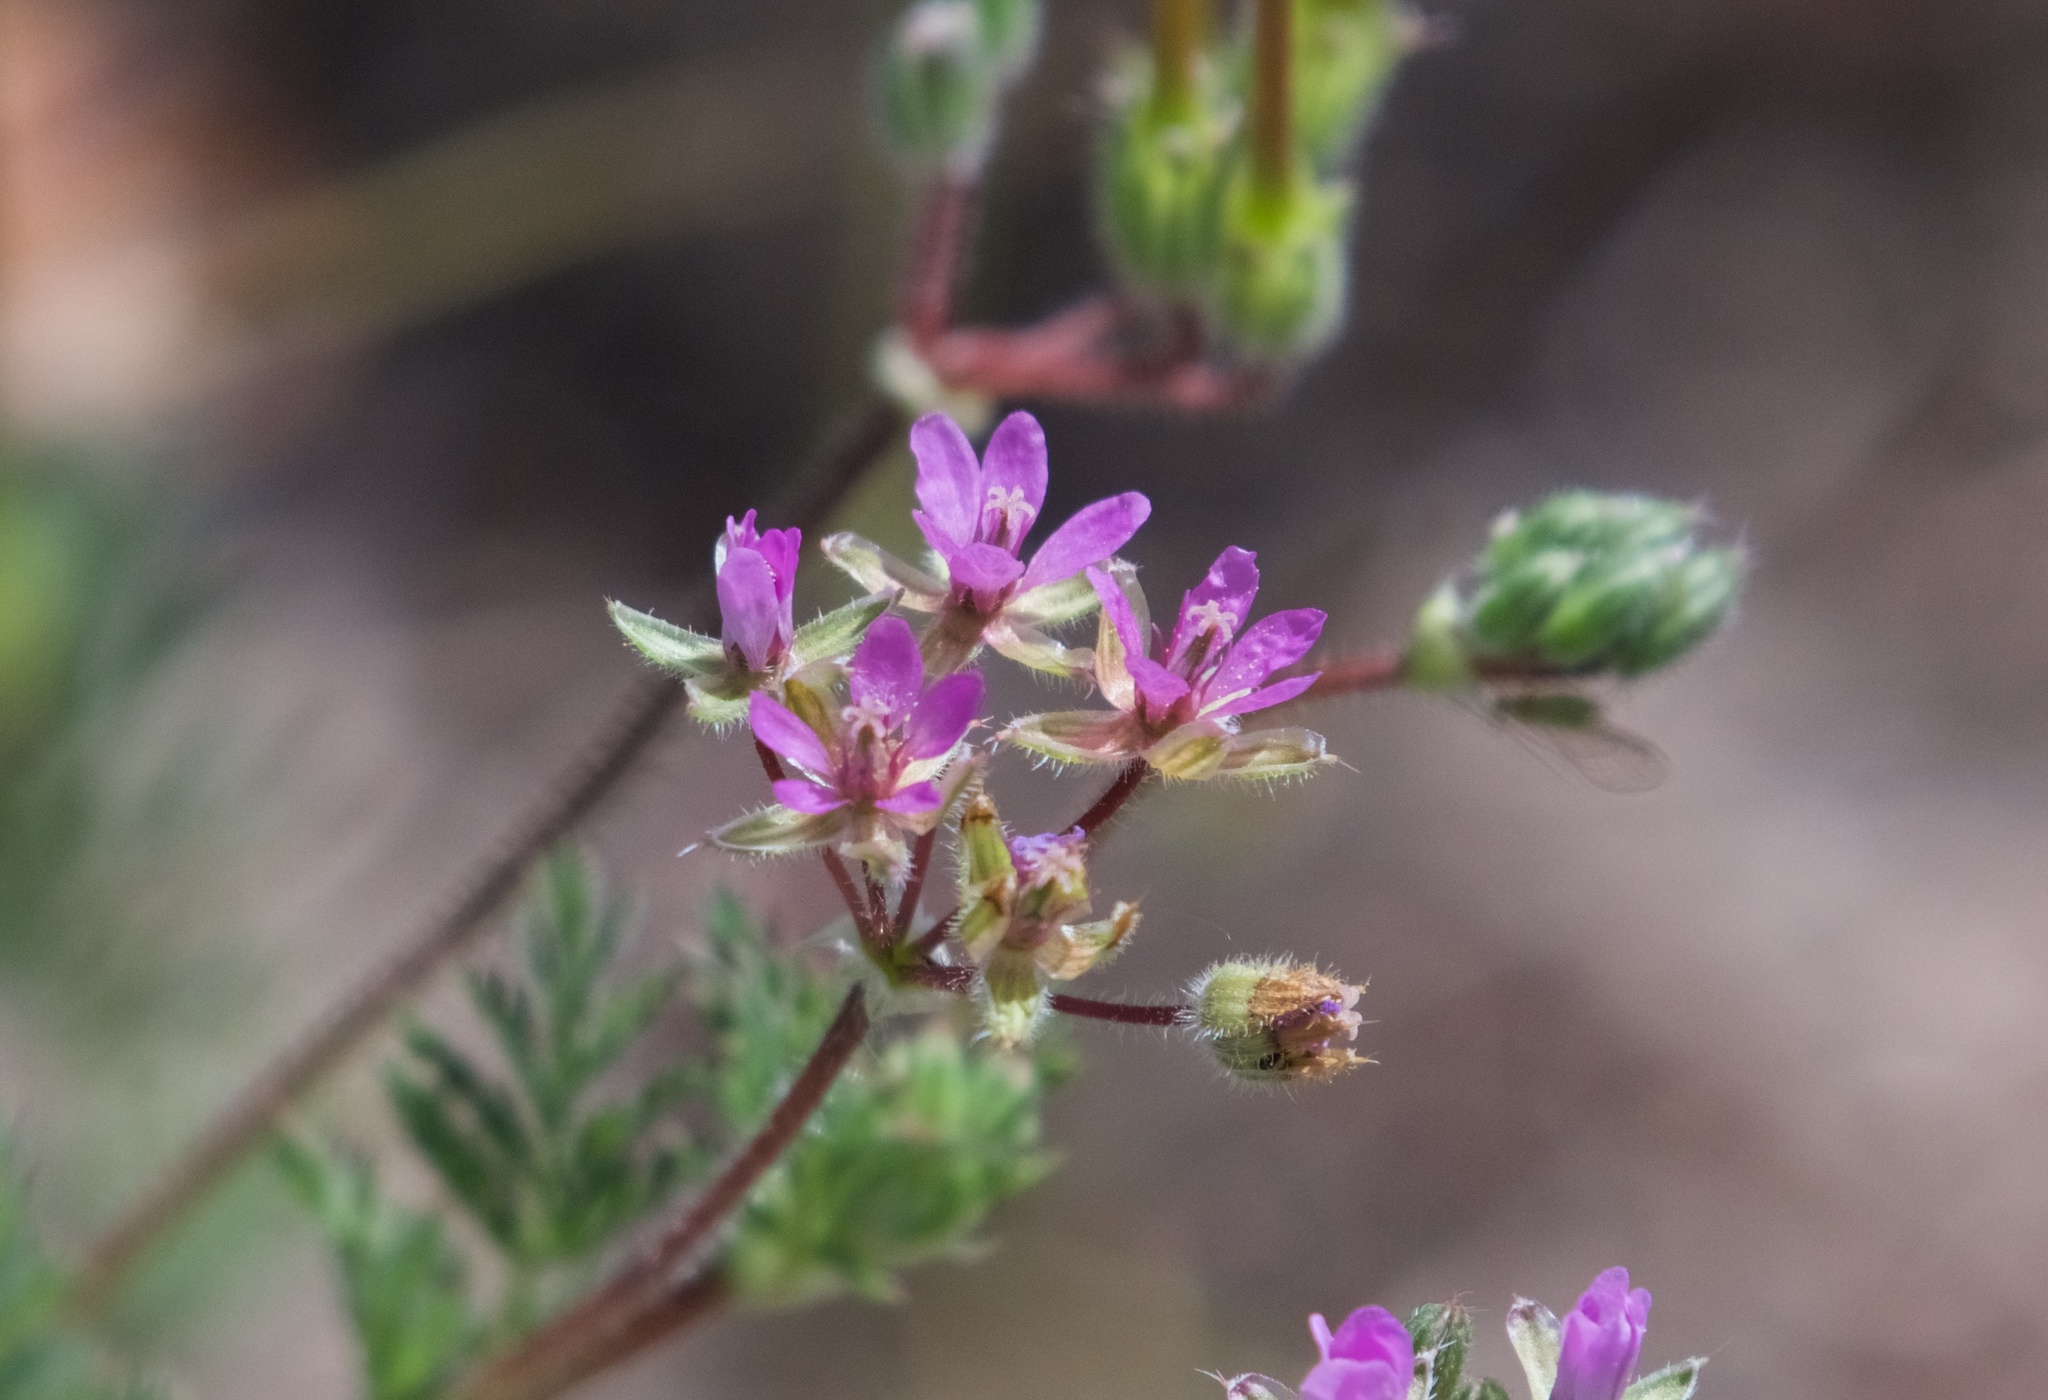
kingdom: Plantae
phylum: Tracheophyta
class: Magnoliopsida
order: Geraniales
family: Geraniaceae
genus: Erodium
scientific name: Erodium cicutarium
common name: Common stork's-bill
